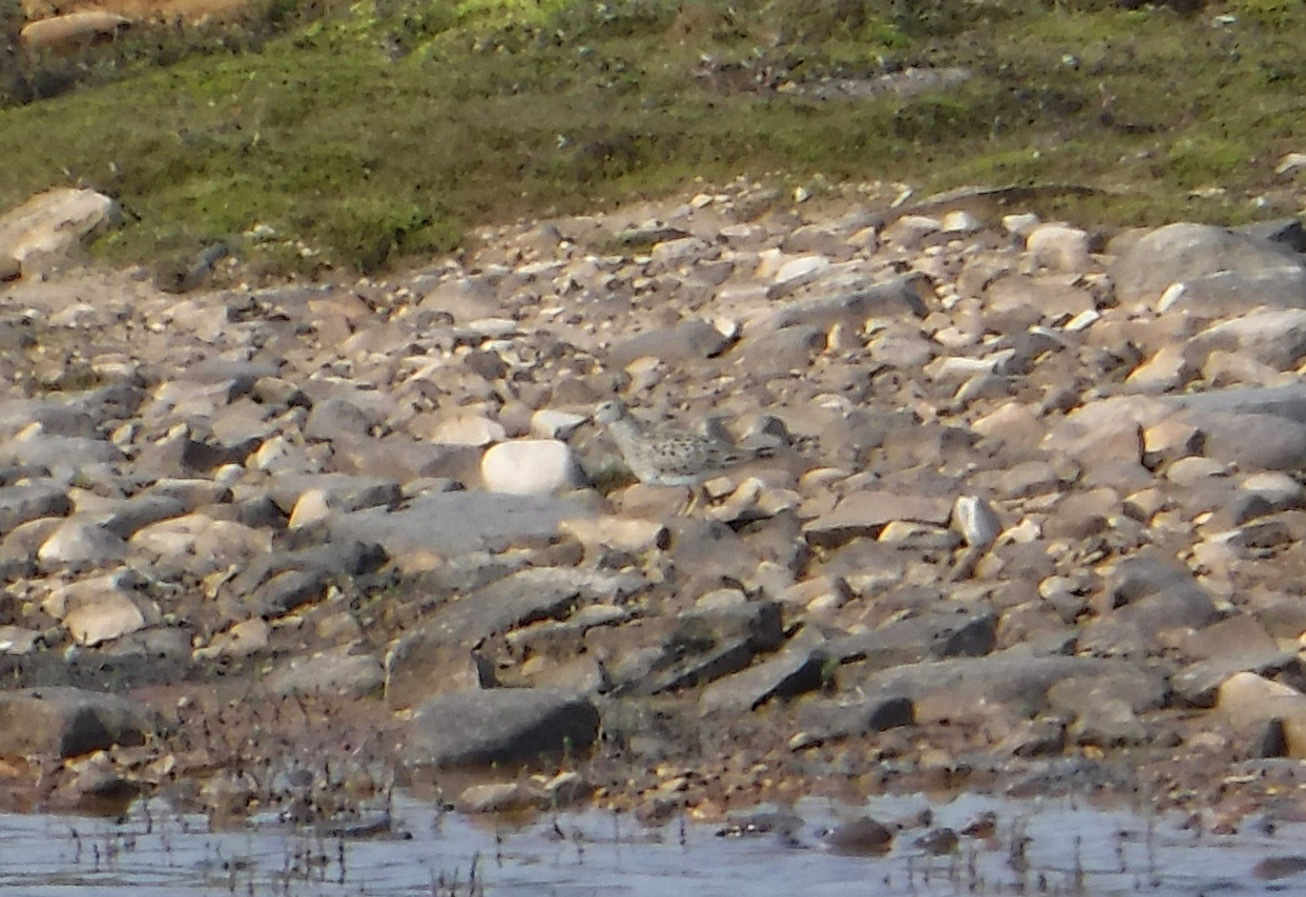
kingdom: Animalia
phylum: Chordata
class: Aves
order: Charadriiformes
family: Scolopacidae
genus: Calidris
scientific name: Calidris melanotos
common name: Pectoral sandpiper
